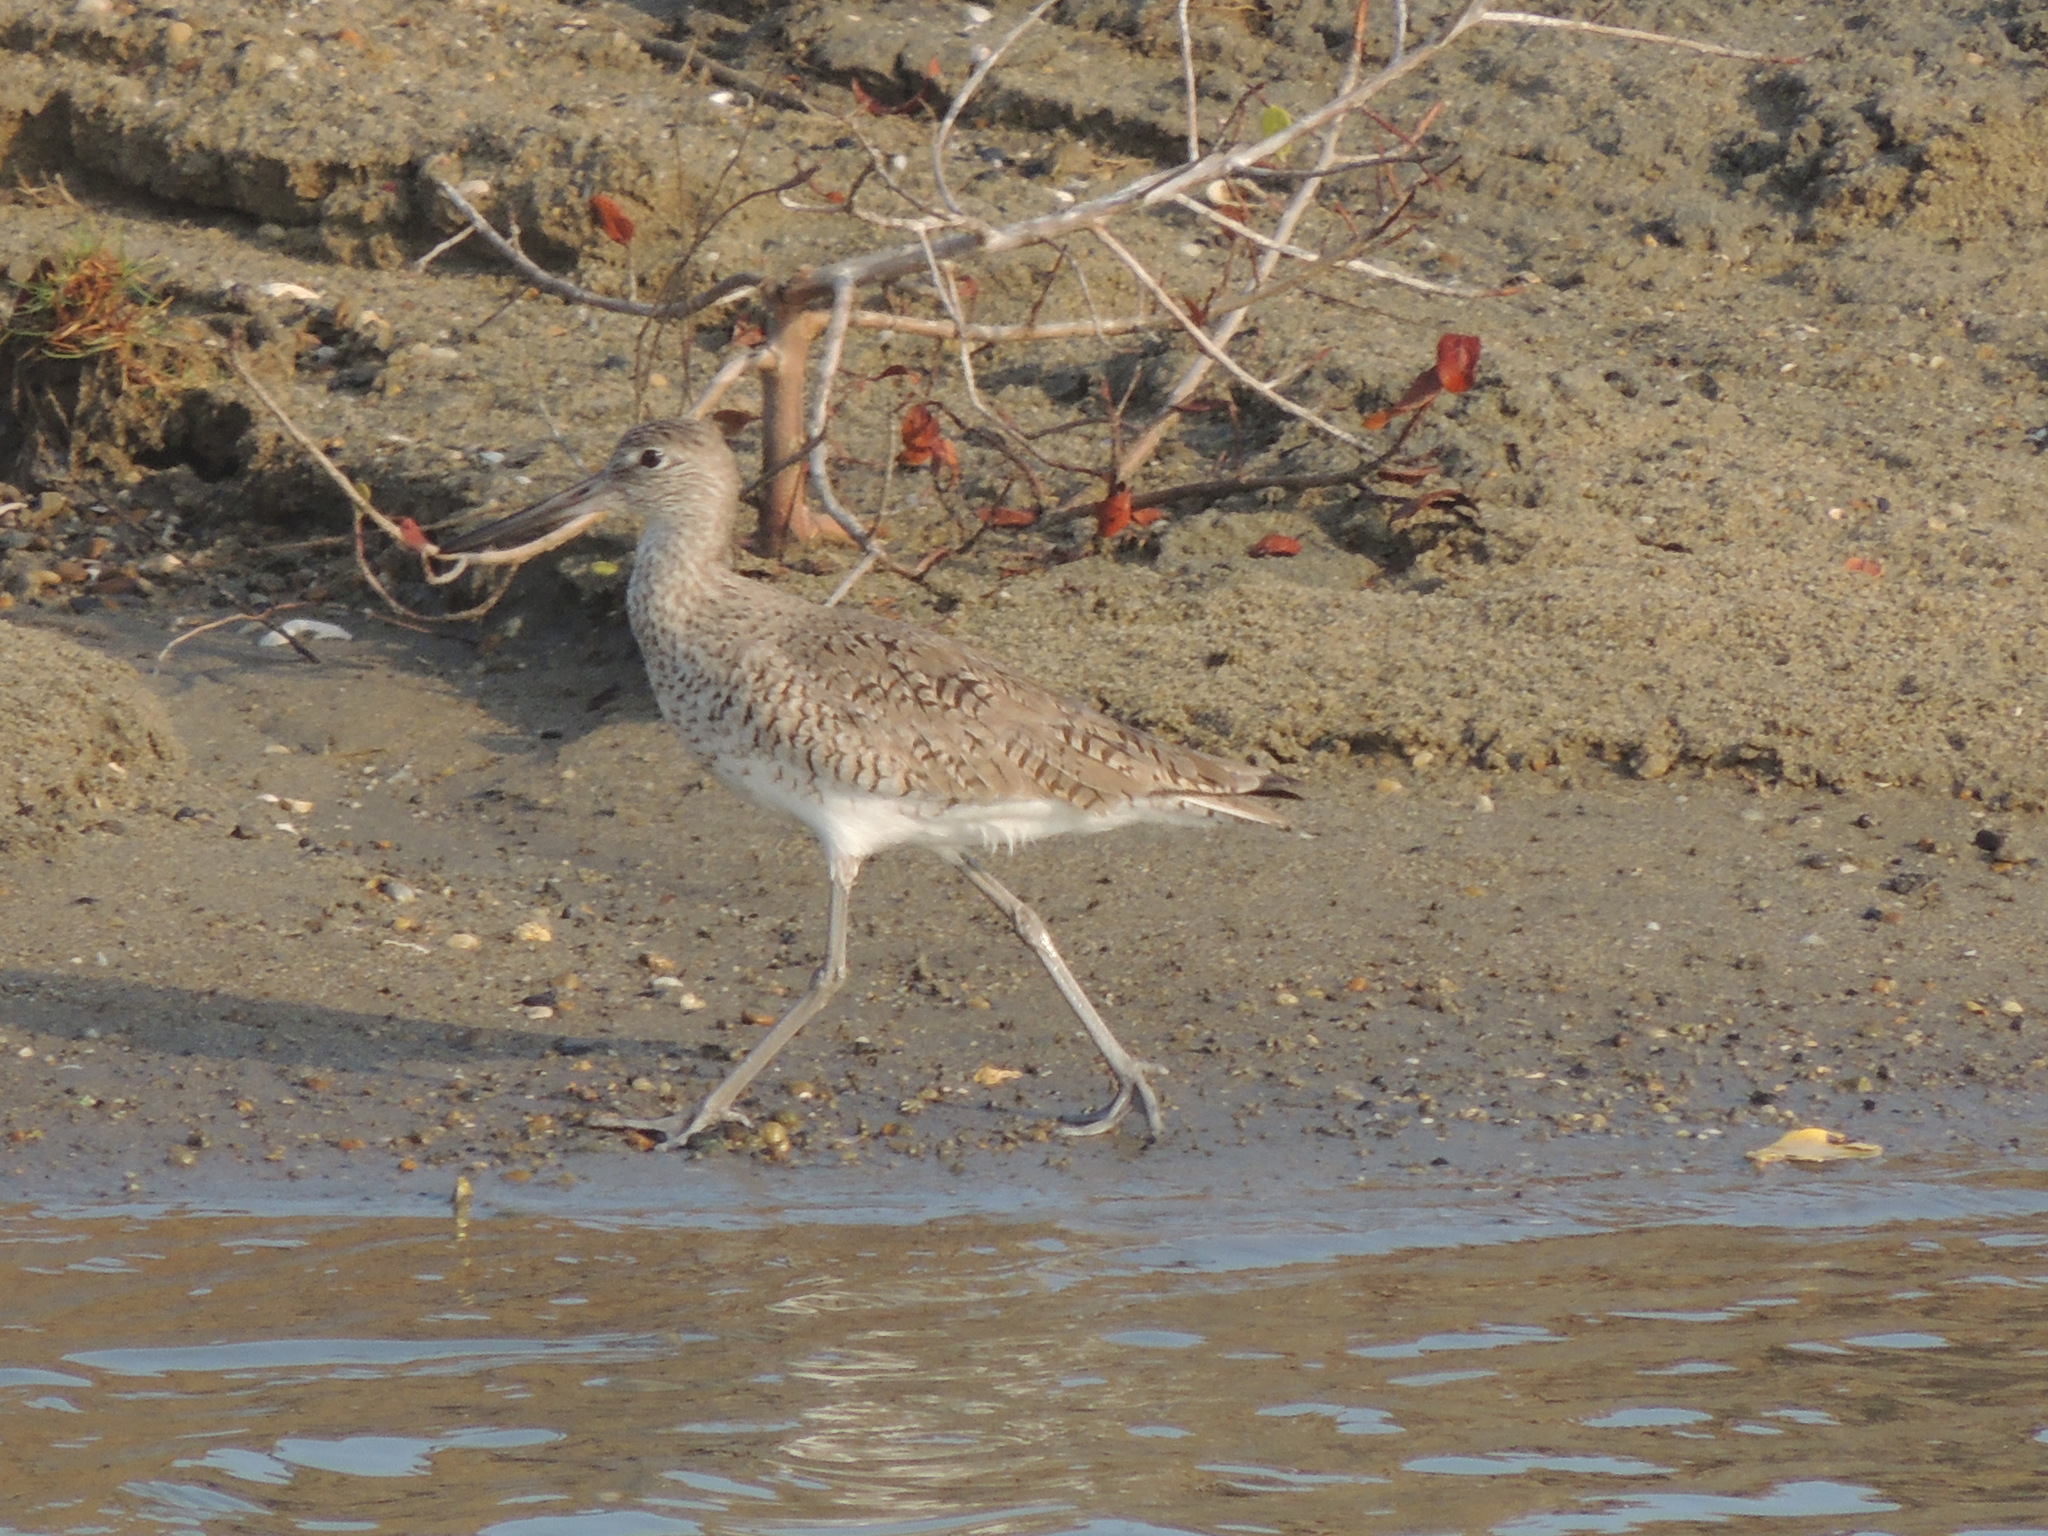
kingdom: Animalia
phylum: Chordata
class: Aves
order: Charadriiformes
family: Scolopacidae
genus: Tringa
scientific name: Tringa semipalmata
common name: Willet
